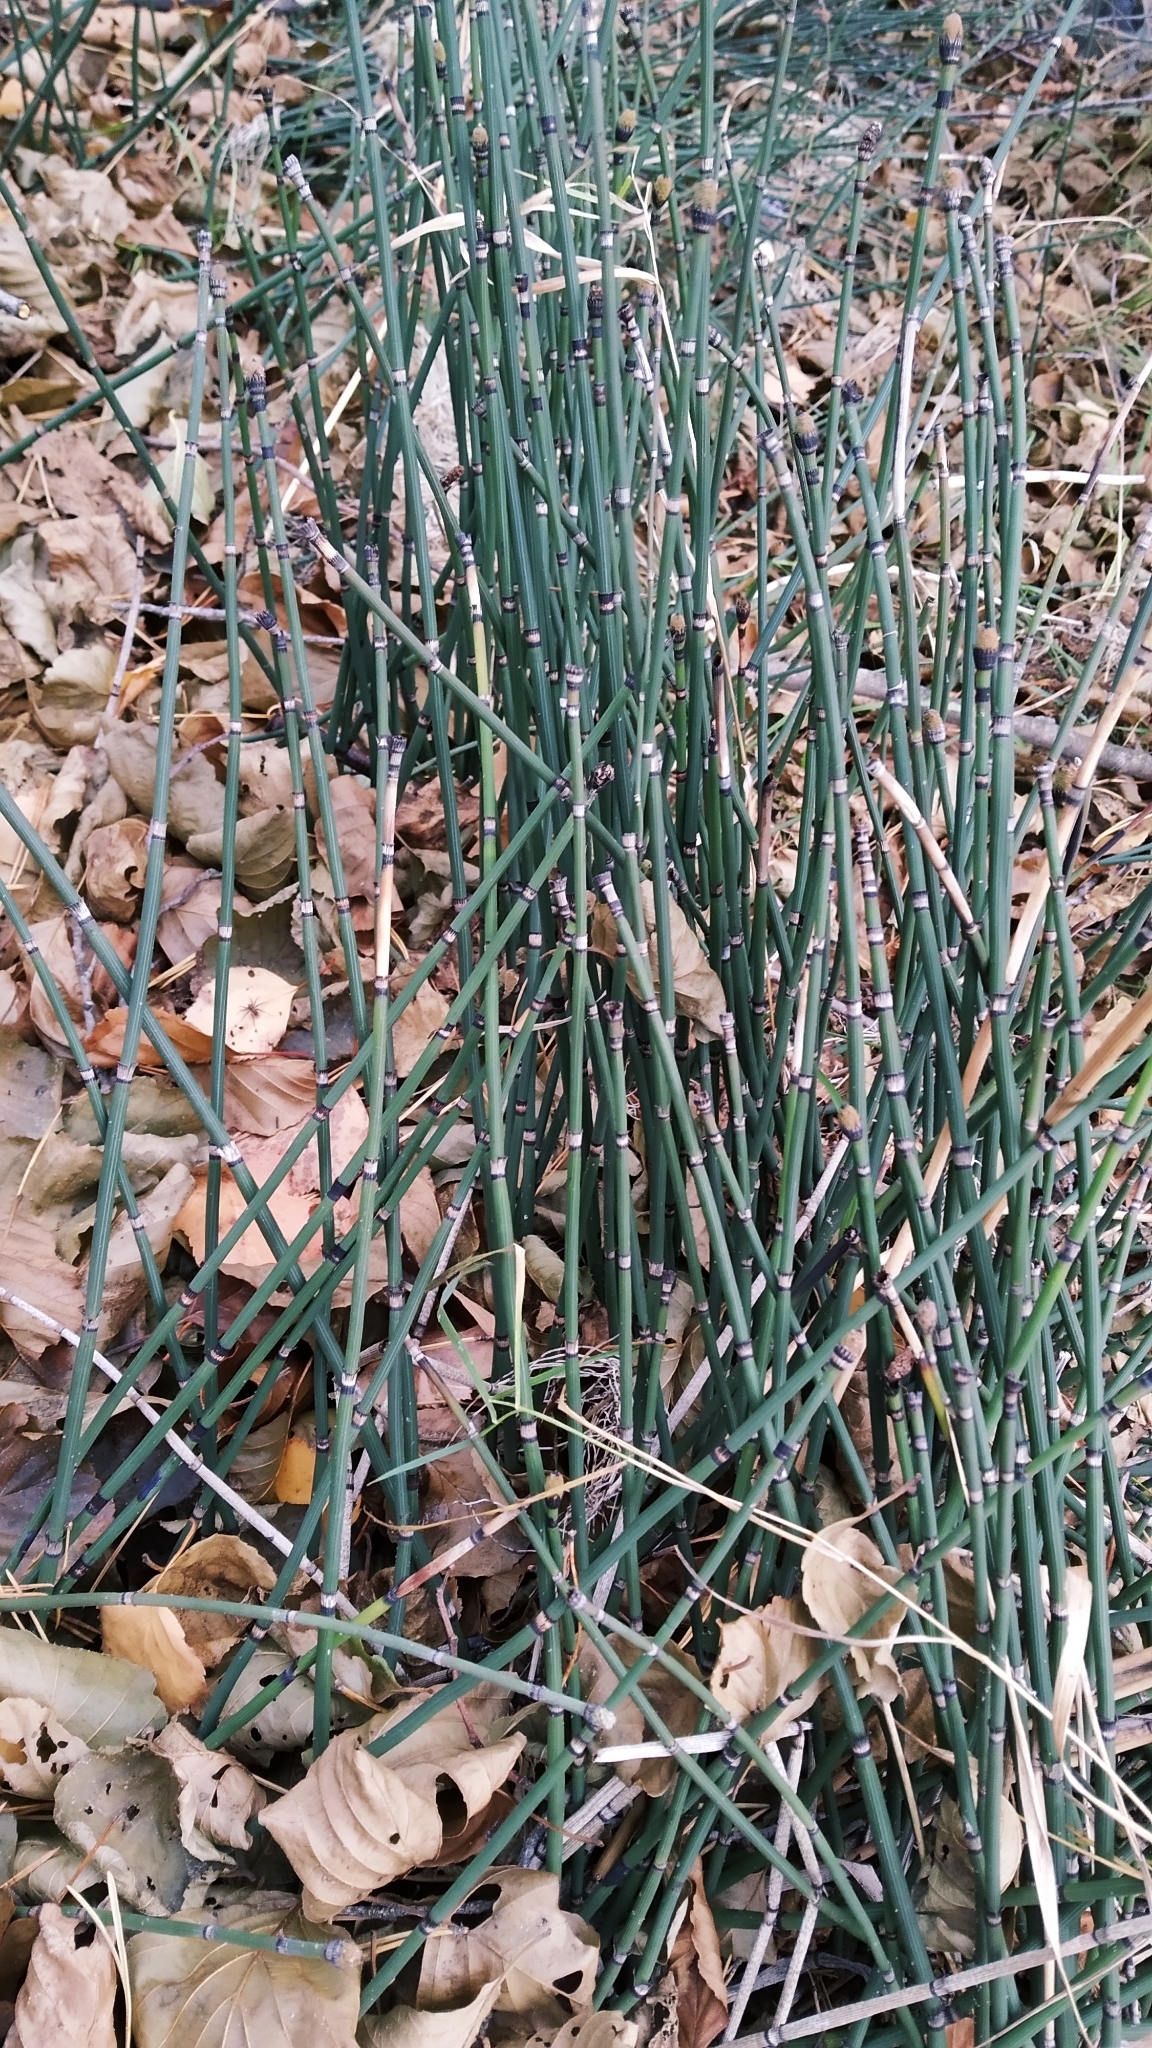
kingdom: Plantae
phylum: Tracheophyta
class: Polypodiopsida
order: Equisetales
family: Equisetaceae
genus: Equisetum
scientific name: Equisetum hyemale
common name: Rough horsetail
